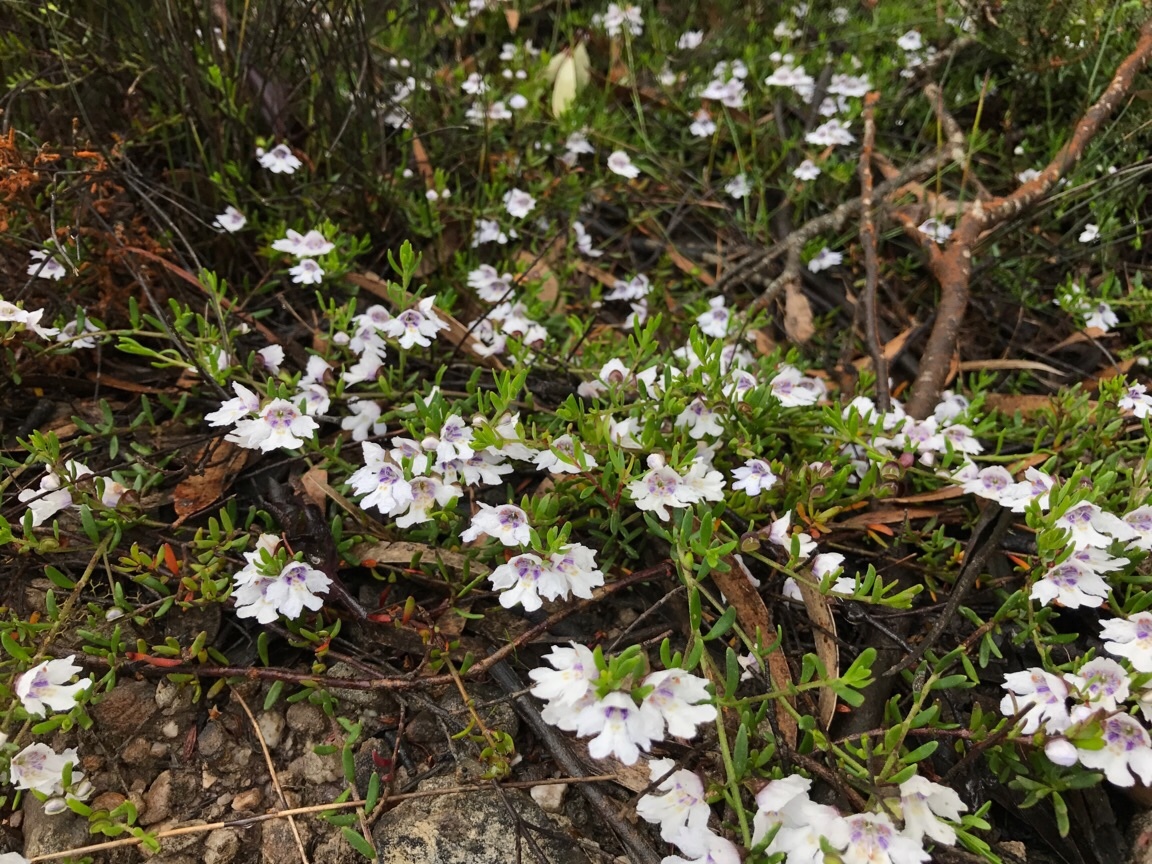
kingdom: Plantae
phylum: Tracheophyta
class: Magnoliopsida
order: Lamiales
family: Lamiaceae
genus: Prostanthera
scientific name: Prostanthera saxicola
